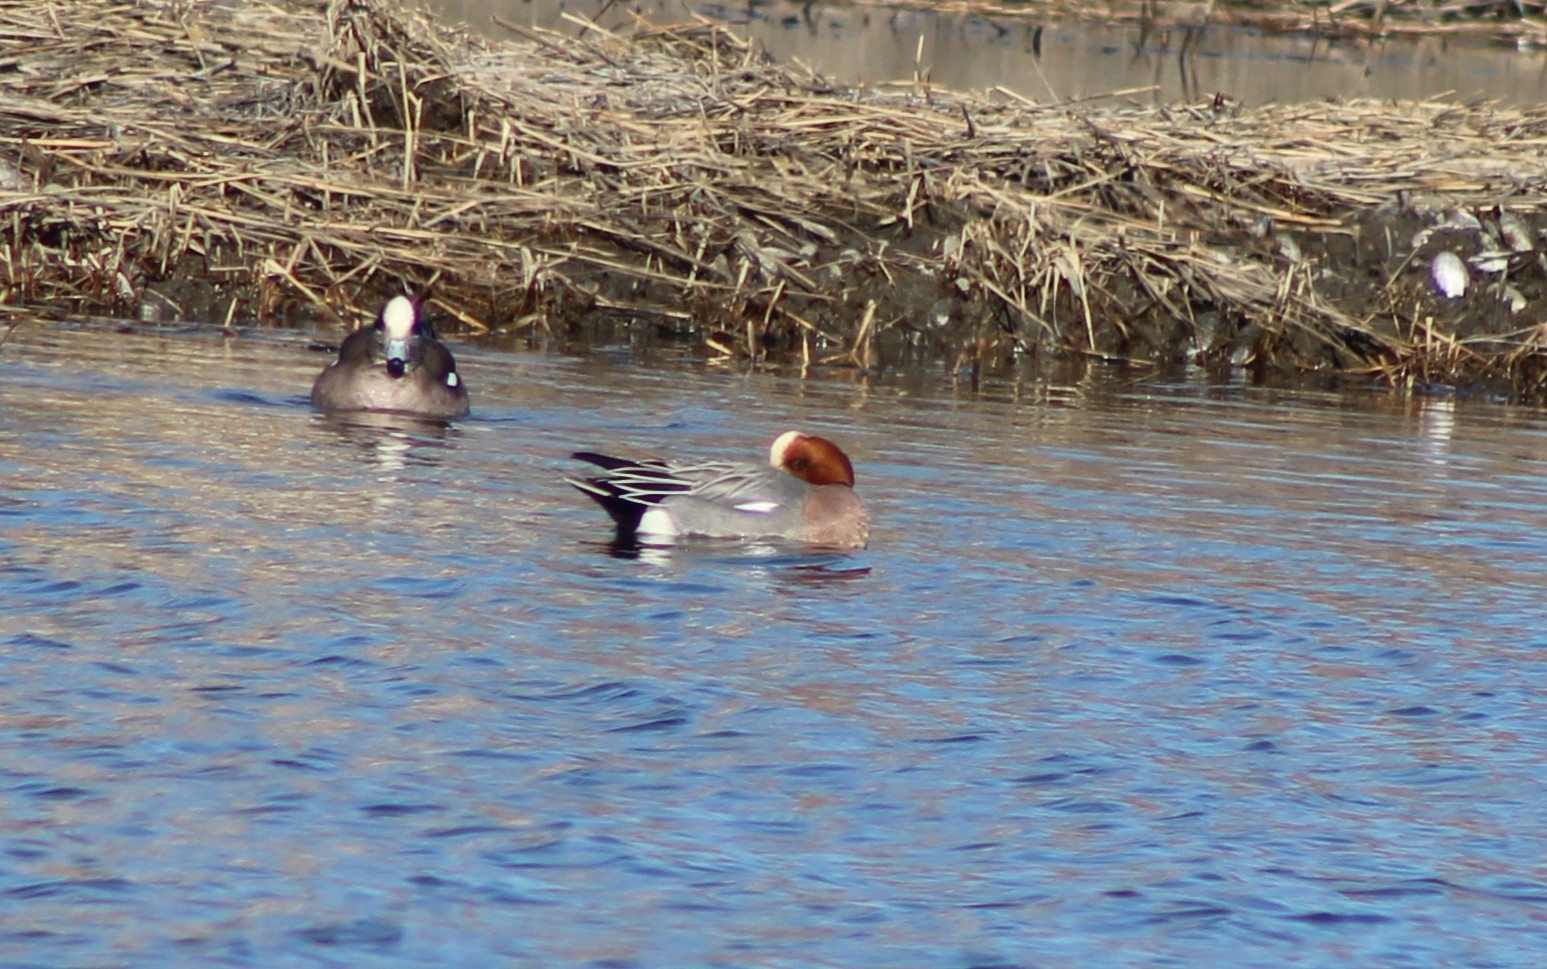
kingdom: Animalia
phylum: Chordata
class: Aves
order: Anseriformes
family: Anatidae
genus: Mareca
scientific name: Mareca penelope
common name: Eurasian wigeon
